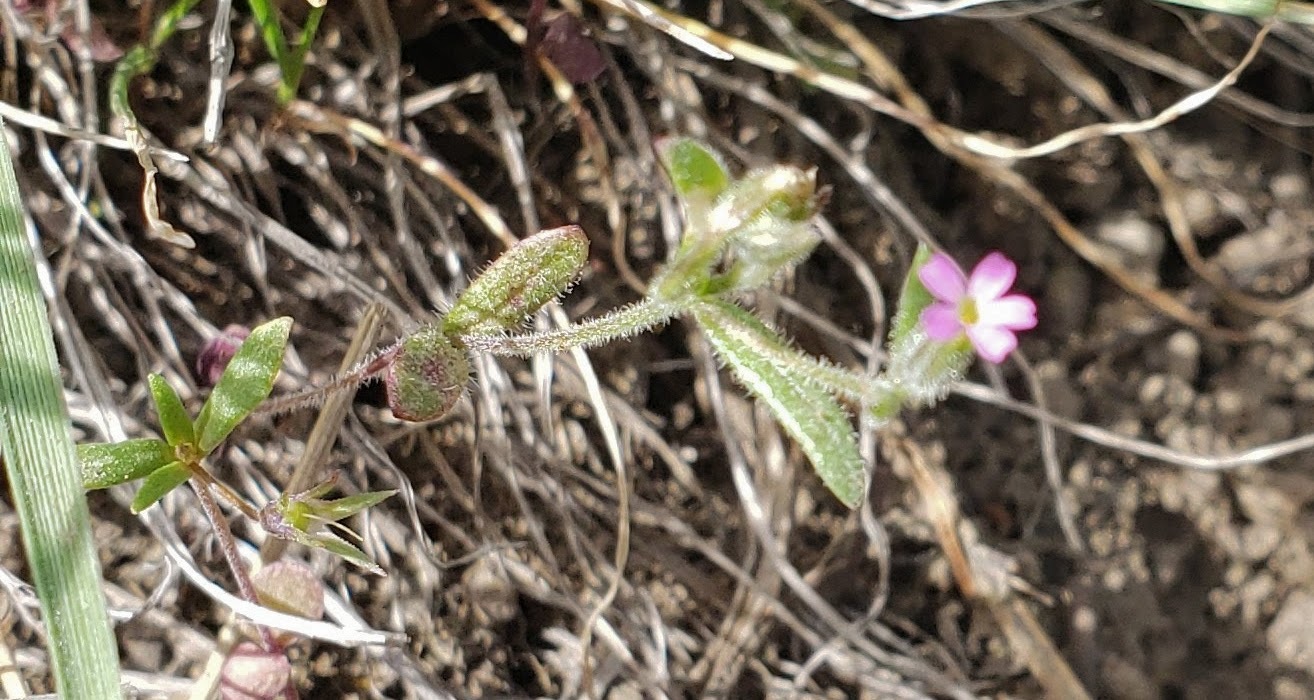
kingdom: Plantae
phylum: Tracheophyta
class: Magnoliopsida
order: Ericales
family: Polemoniaceae
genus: Phlox
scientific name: Phlox gracilis
